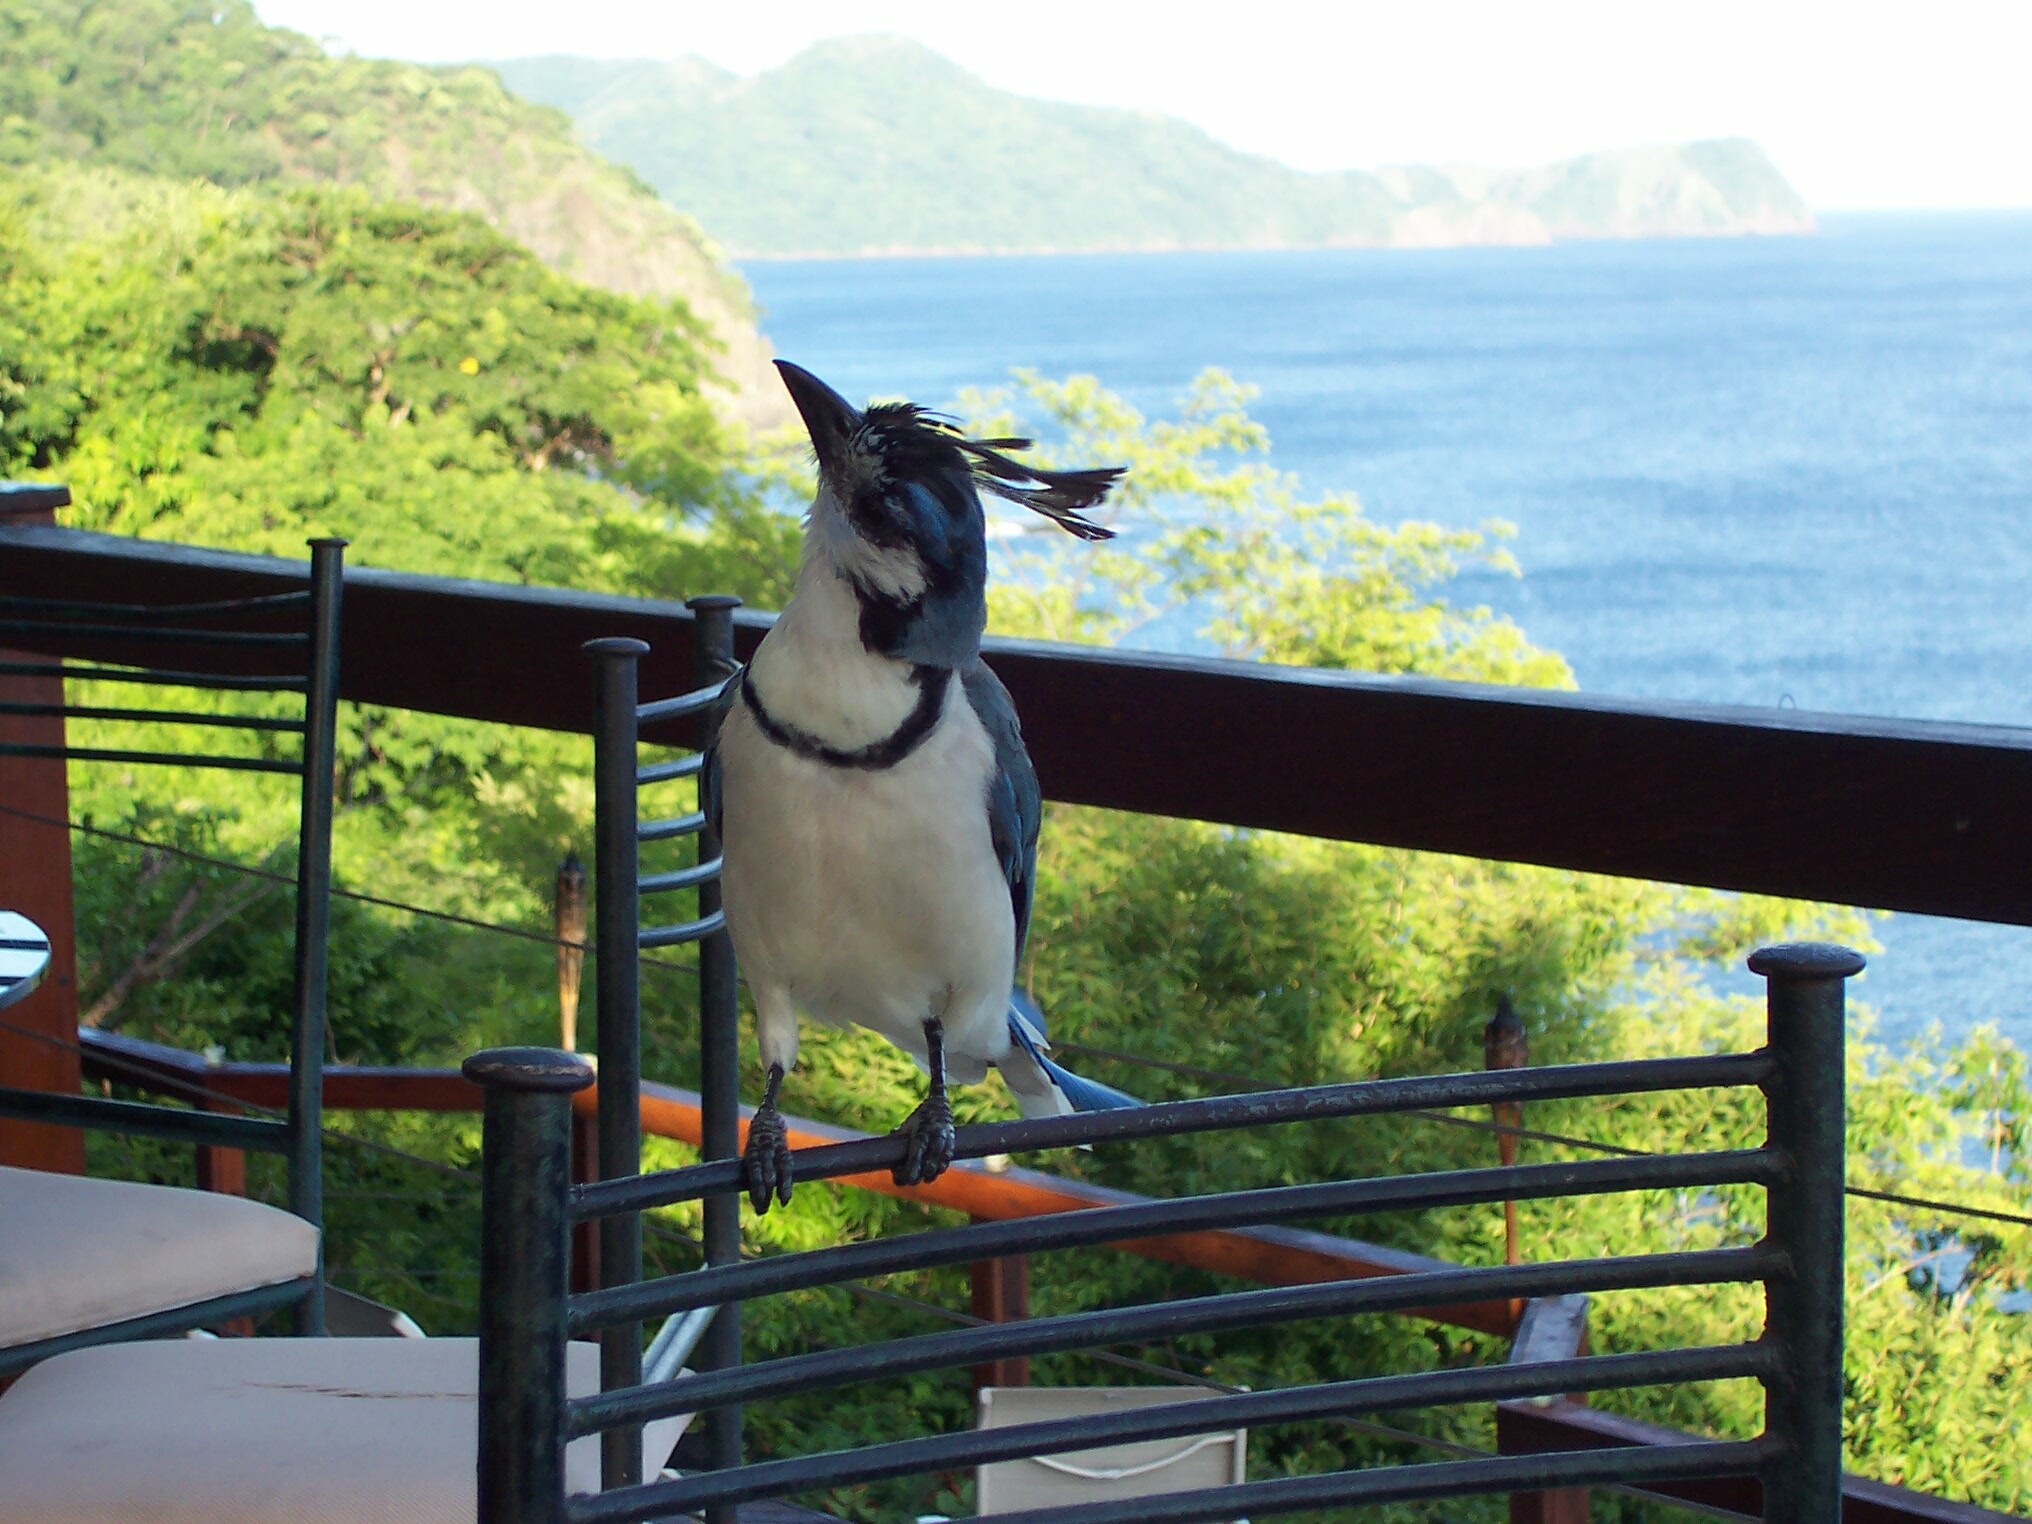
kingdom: Animalia
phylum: Chordata
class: Aves
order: Passeriformes
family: Corvidae
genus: Calocitta
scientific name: Calocitta formosa
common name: White-throated magpie-jay
